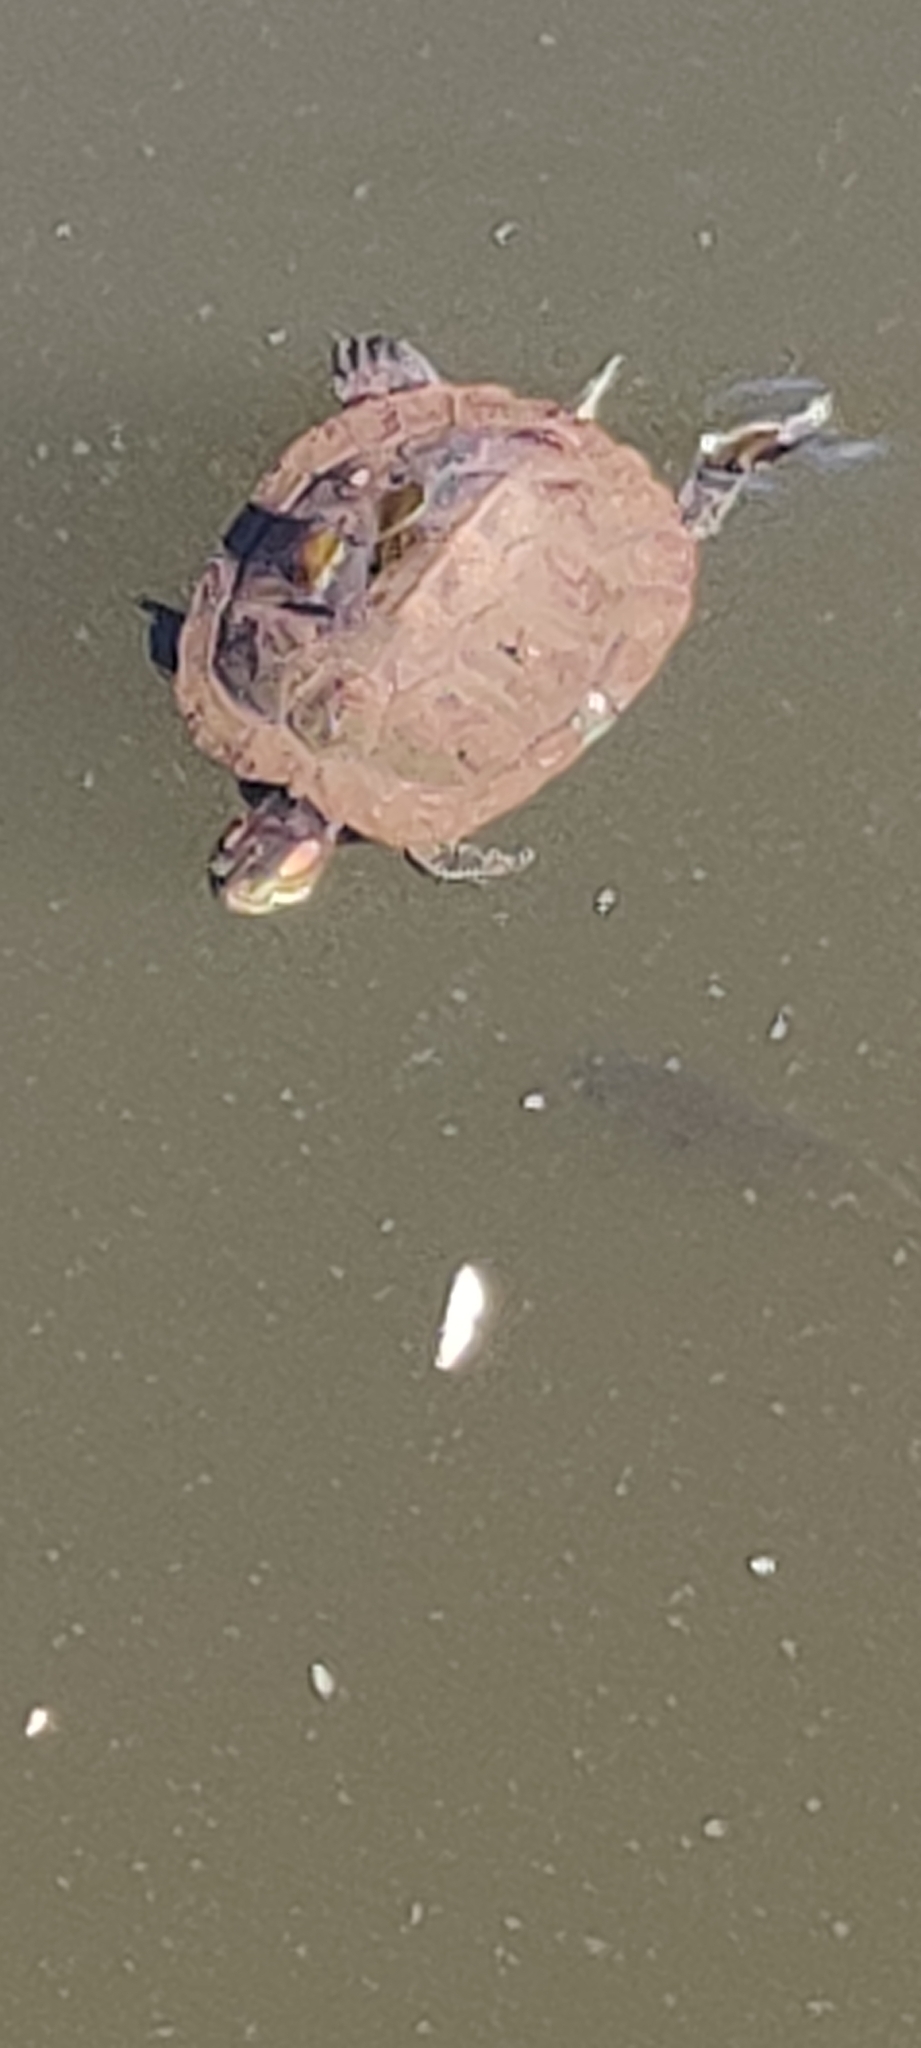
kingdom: Animalia
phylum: Chordata
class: Testudines
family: Emydidae
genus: Trachemys
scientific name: Trachemys scripta
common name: Slider
